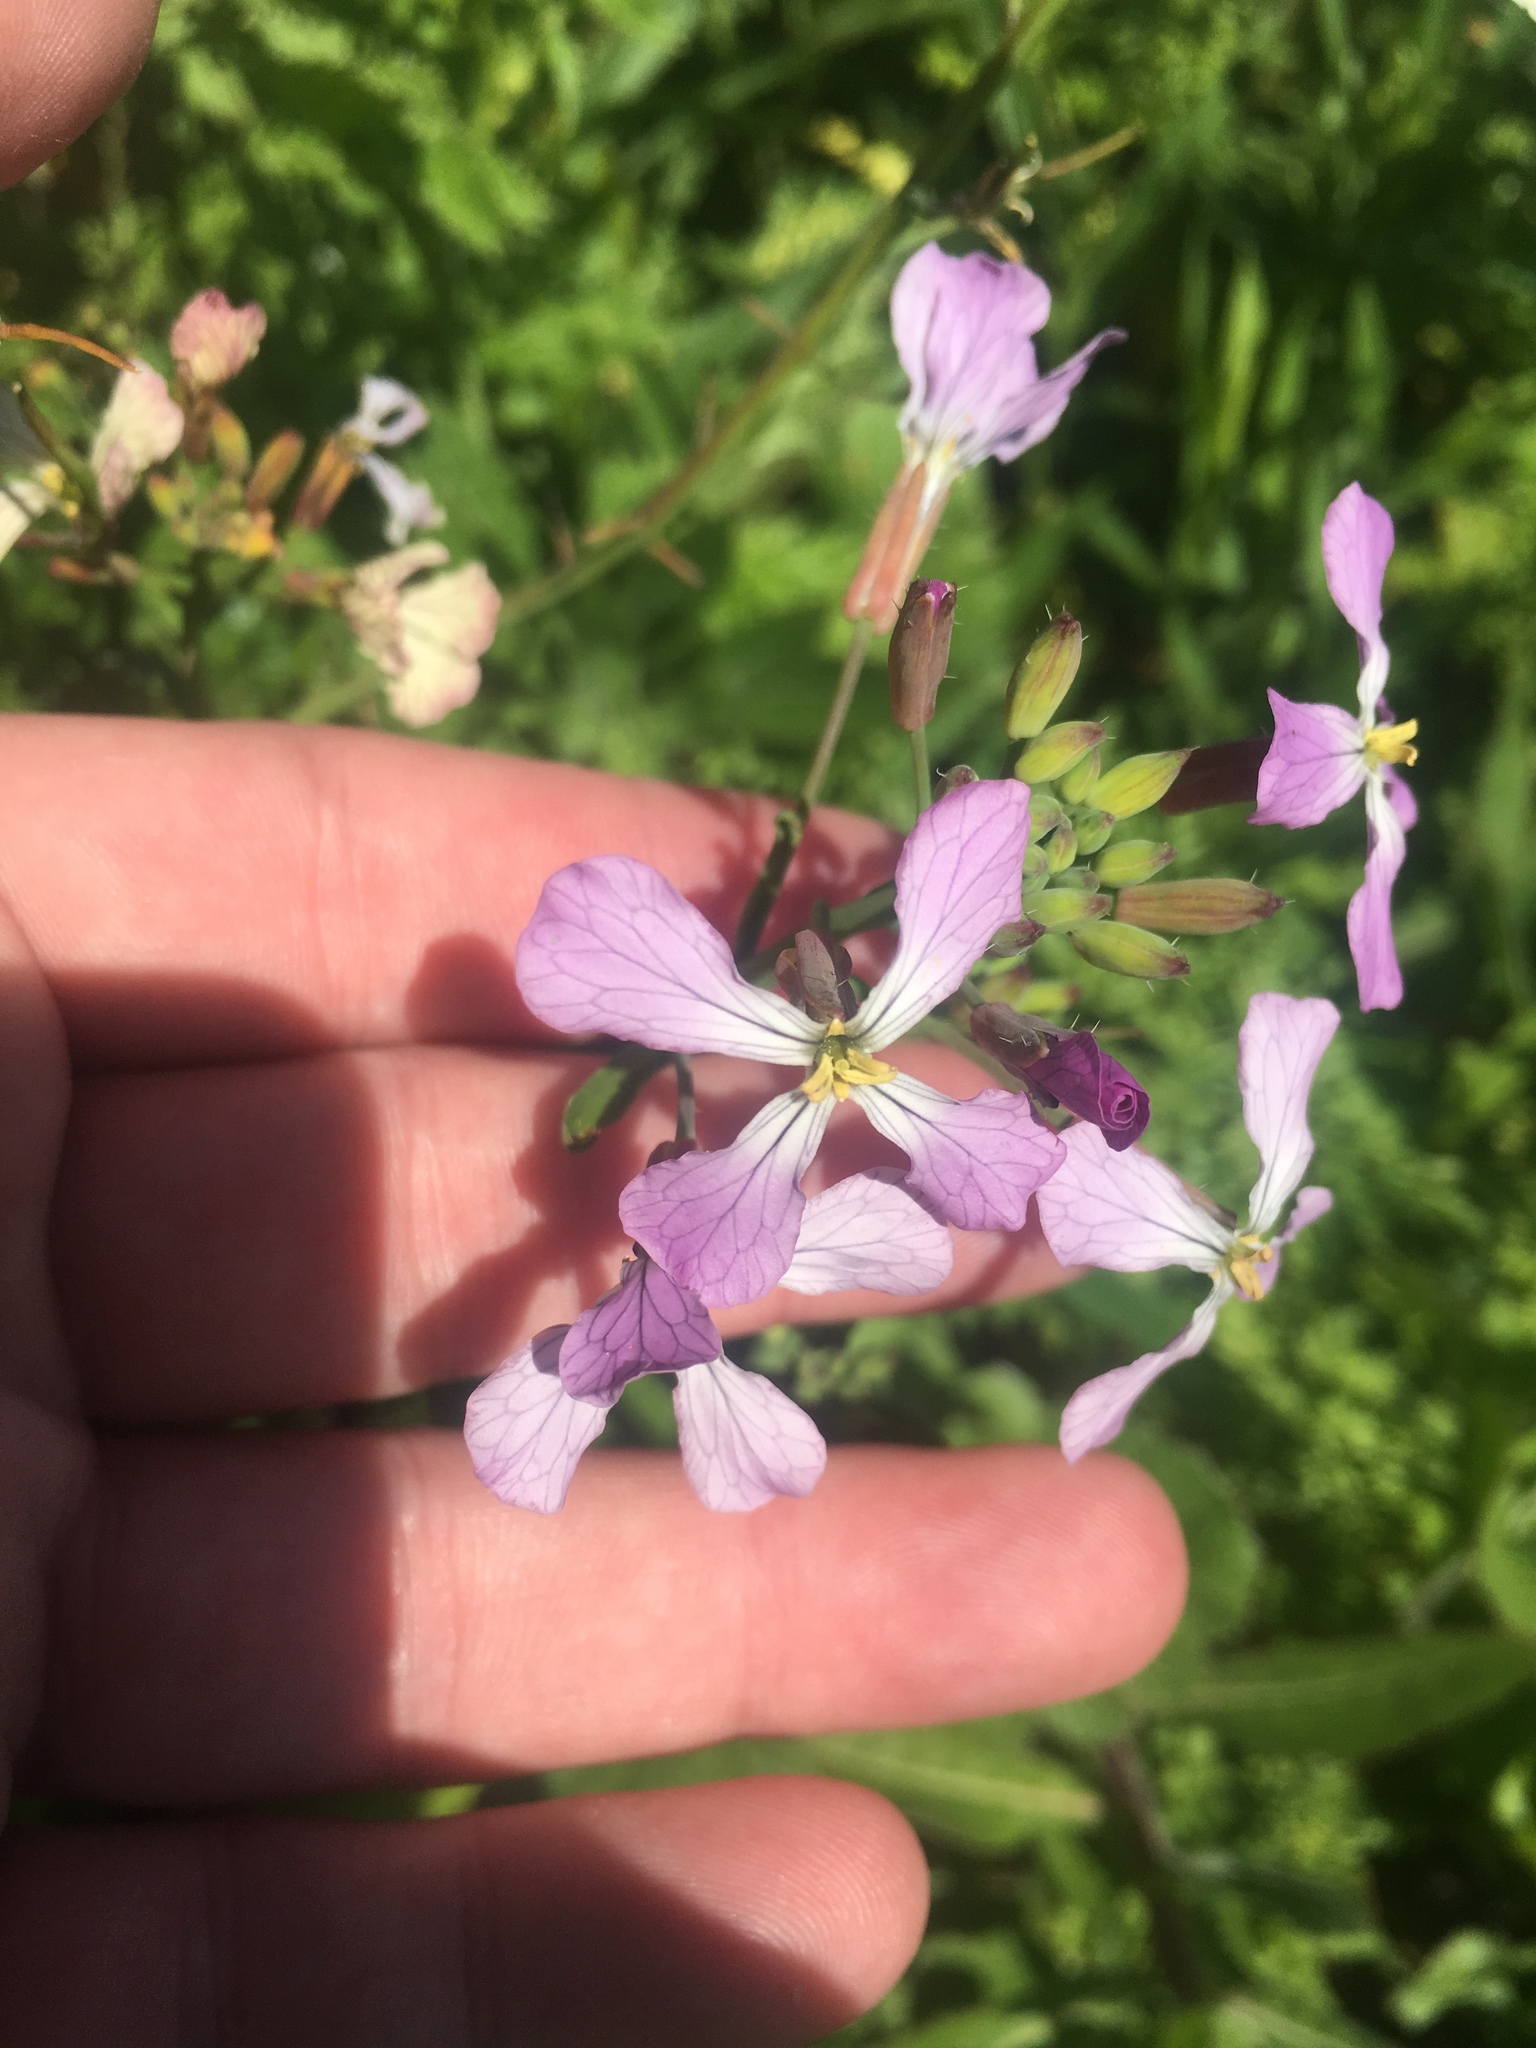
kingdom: Plantae
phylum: Tracheophyta
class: Magnoliopsida
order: Brassicales
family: Brassicaceae
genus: Raphanus
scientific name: Raphanus sativus
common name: Cultivated radish
